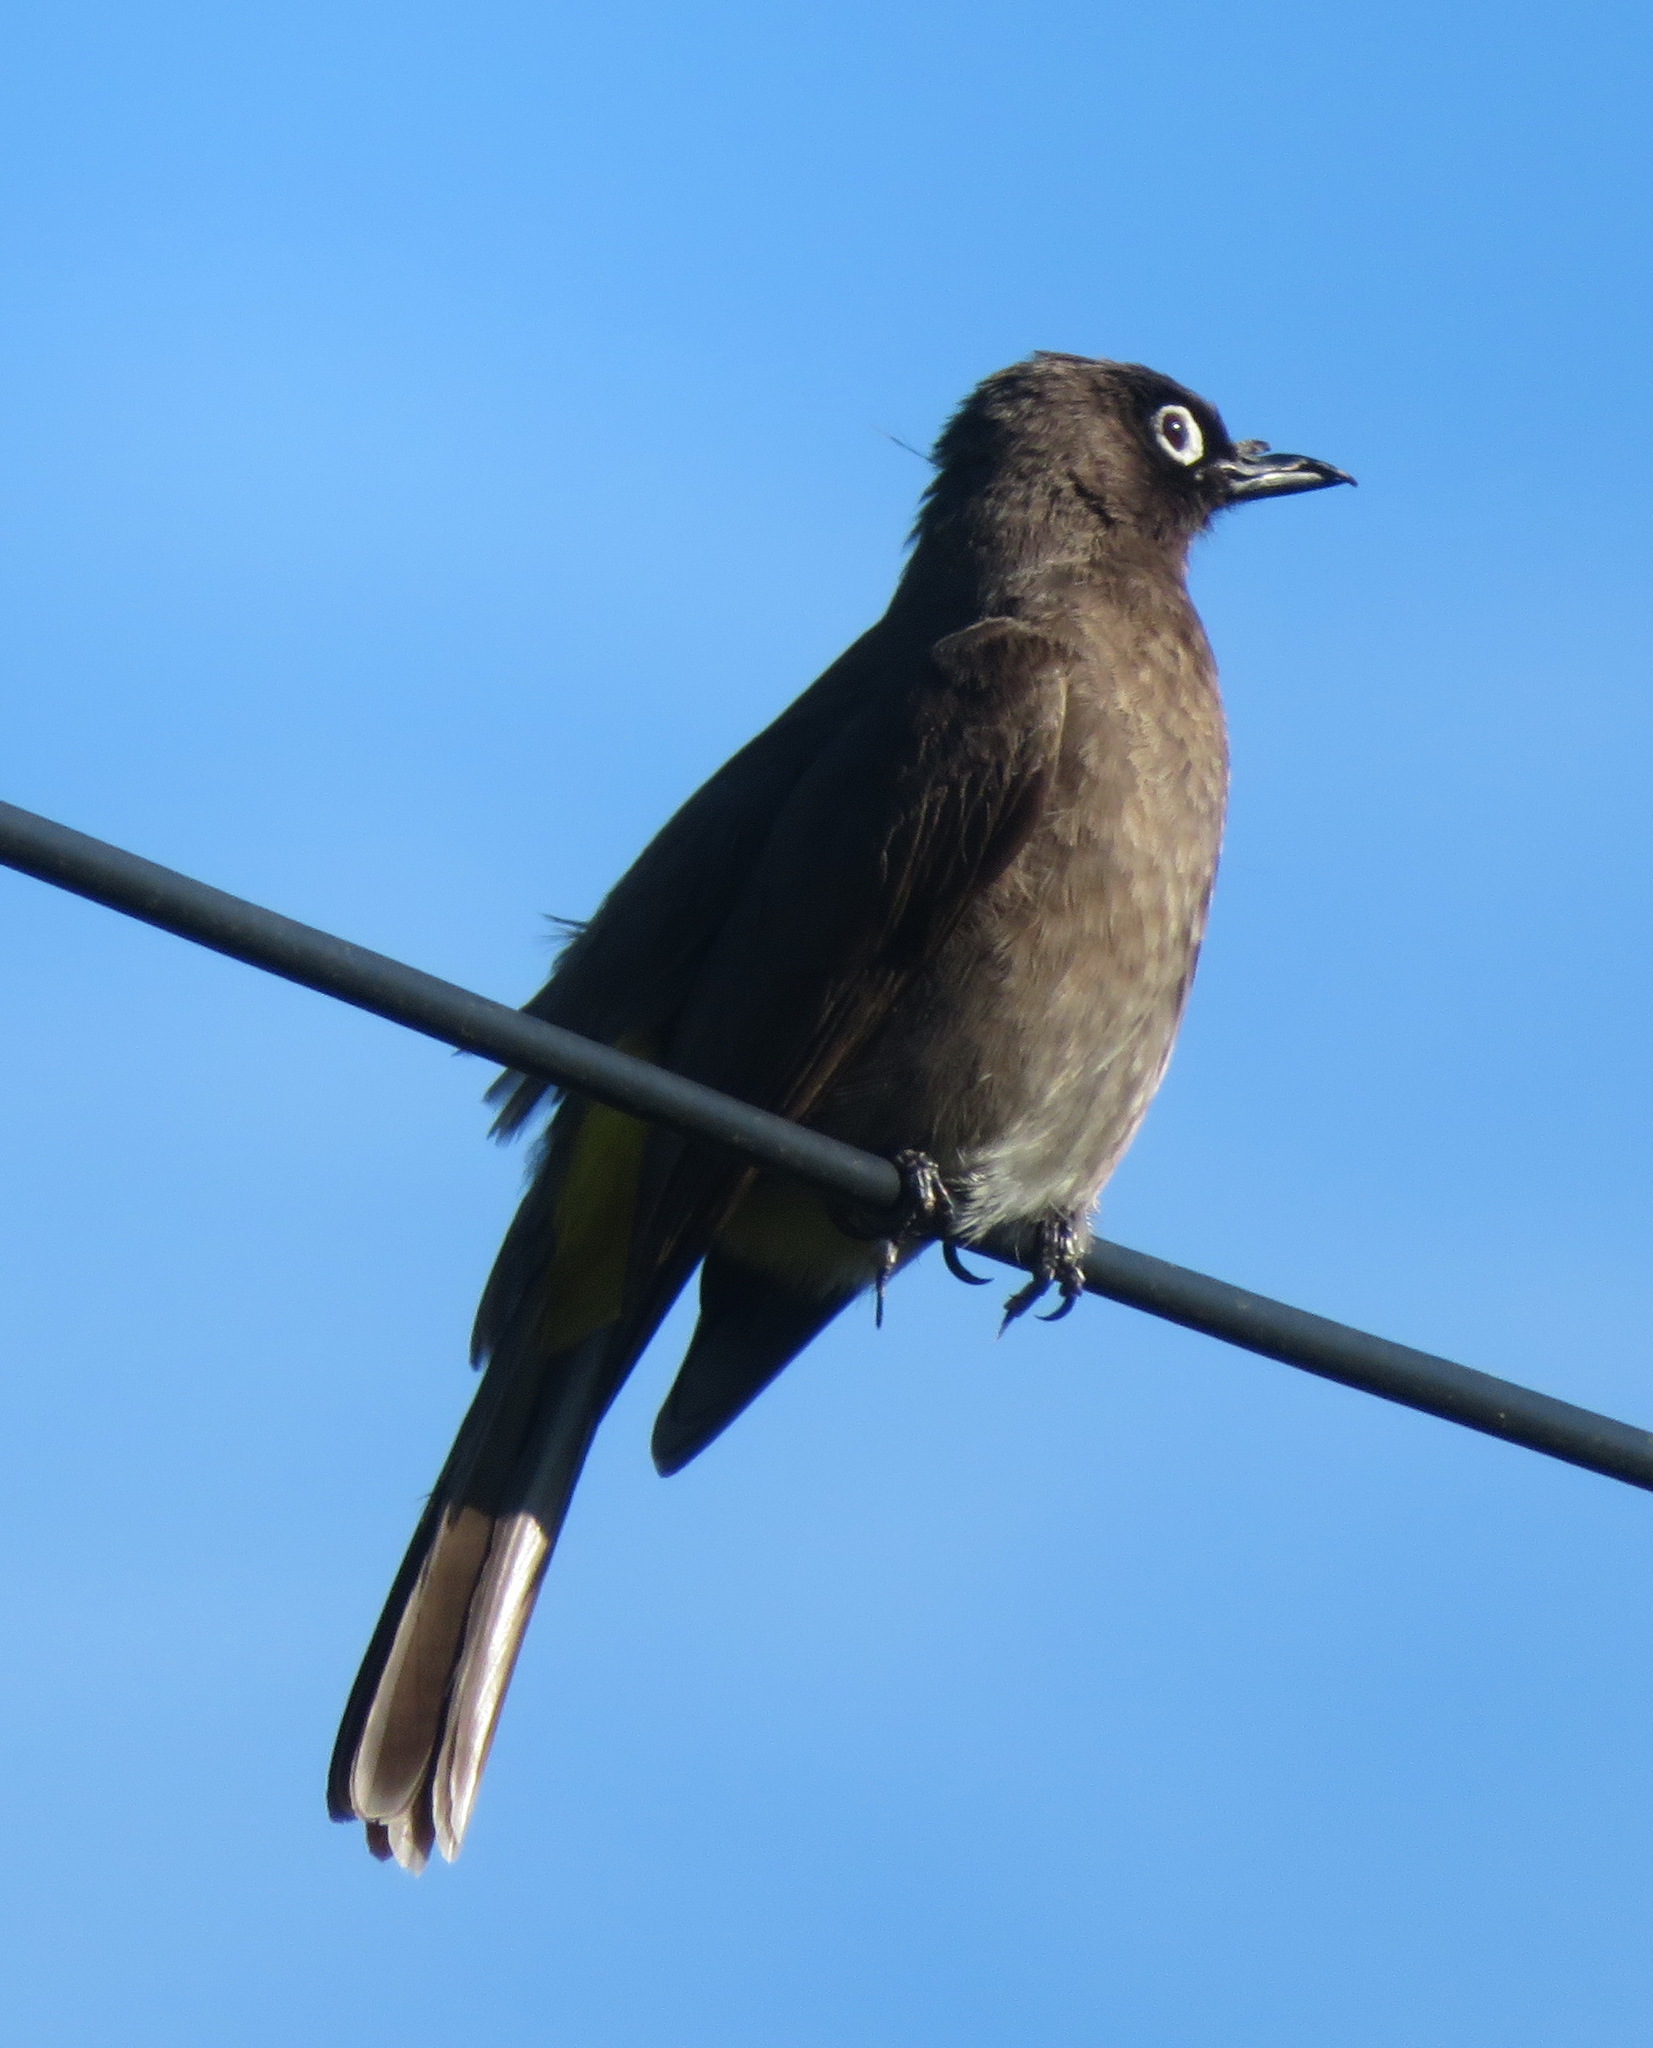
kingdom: Animalia
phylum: Chordata
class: Aves
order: Passeriformes
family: Pycnonotidae
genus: Pycnonotus
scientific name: Pycnonotus capensis
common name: Cape bulbul
